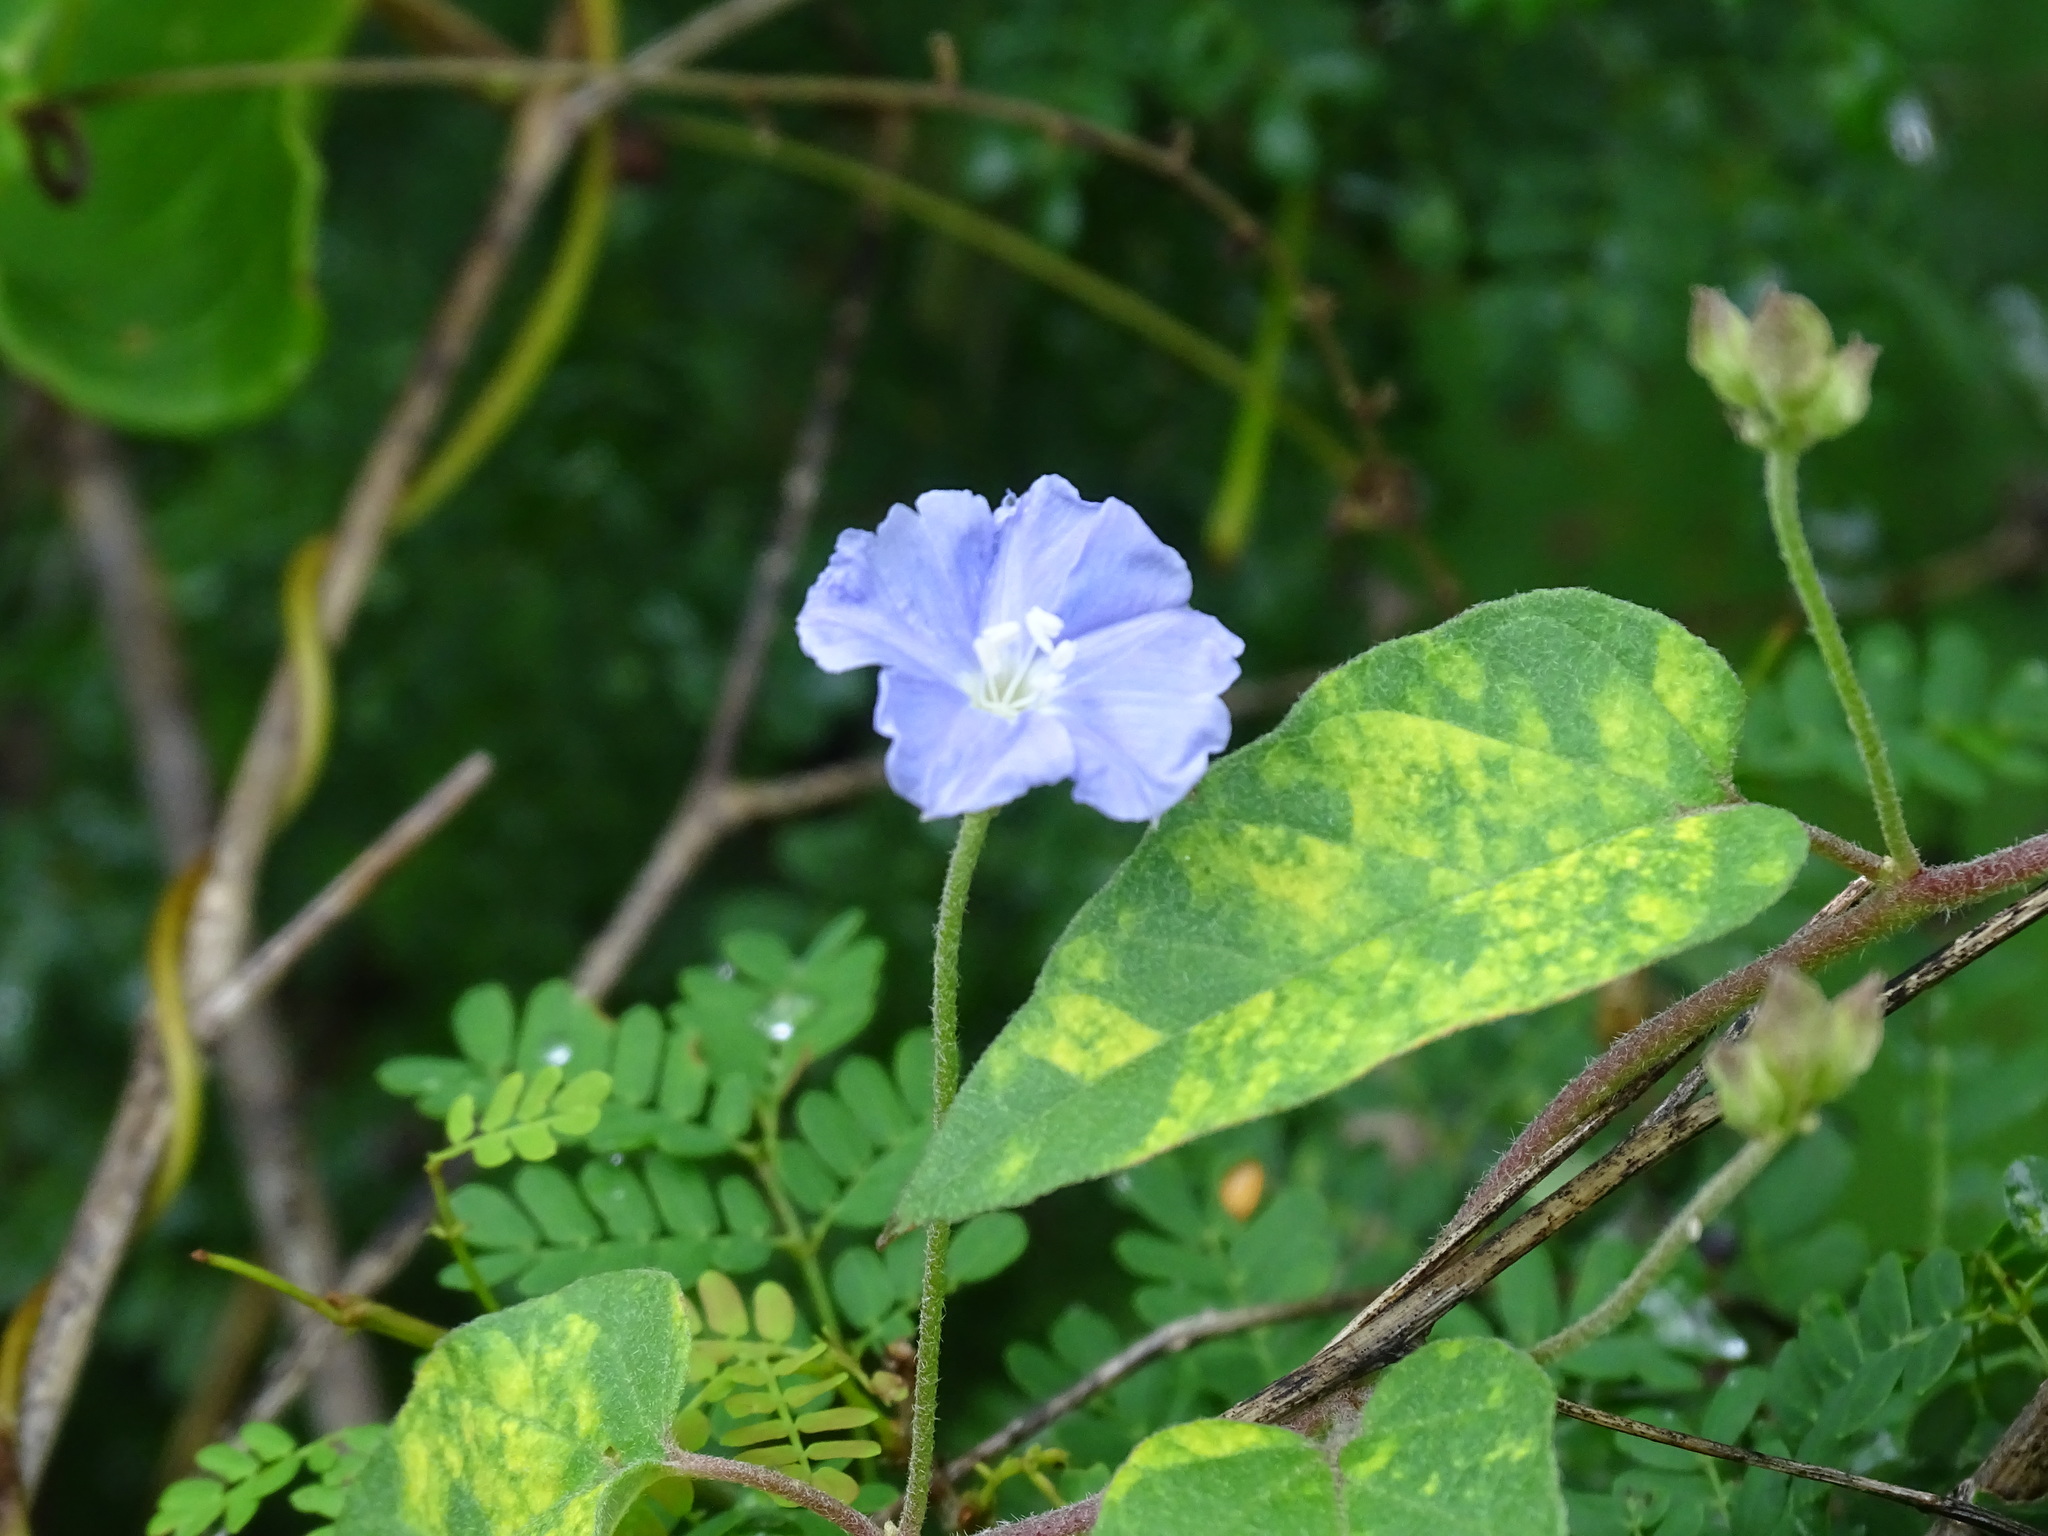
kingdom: Plantae
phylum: Tracheophyta
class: Magnoliopsida
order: Solanales
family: Convolvulaceae
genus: Jacquemontia
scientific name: Jacquemontia pentanthos
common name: Skyblue clustervine
